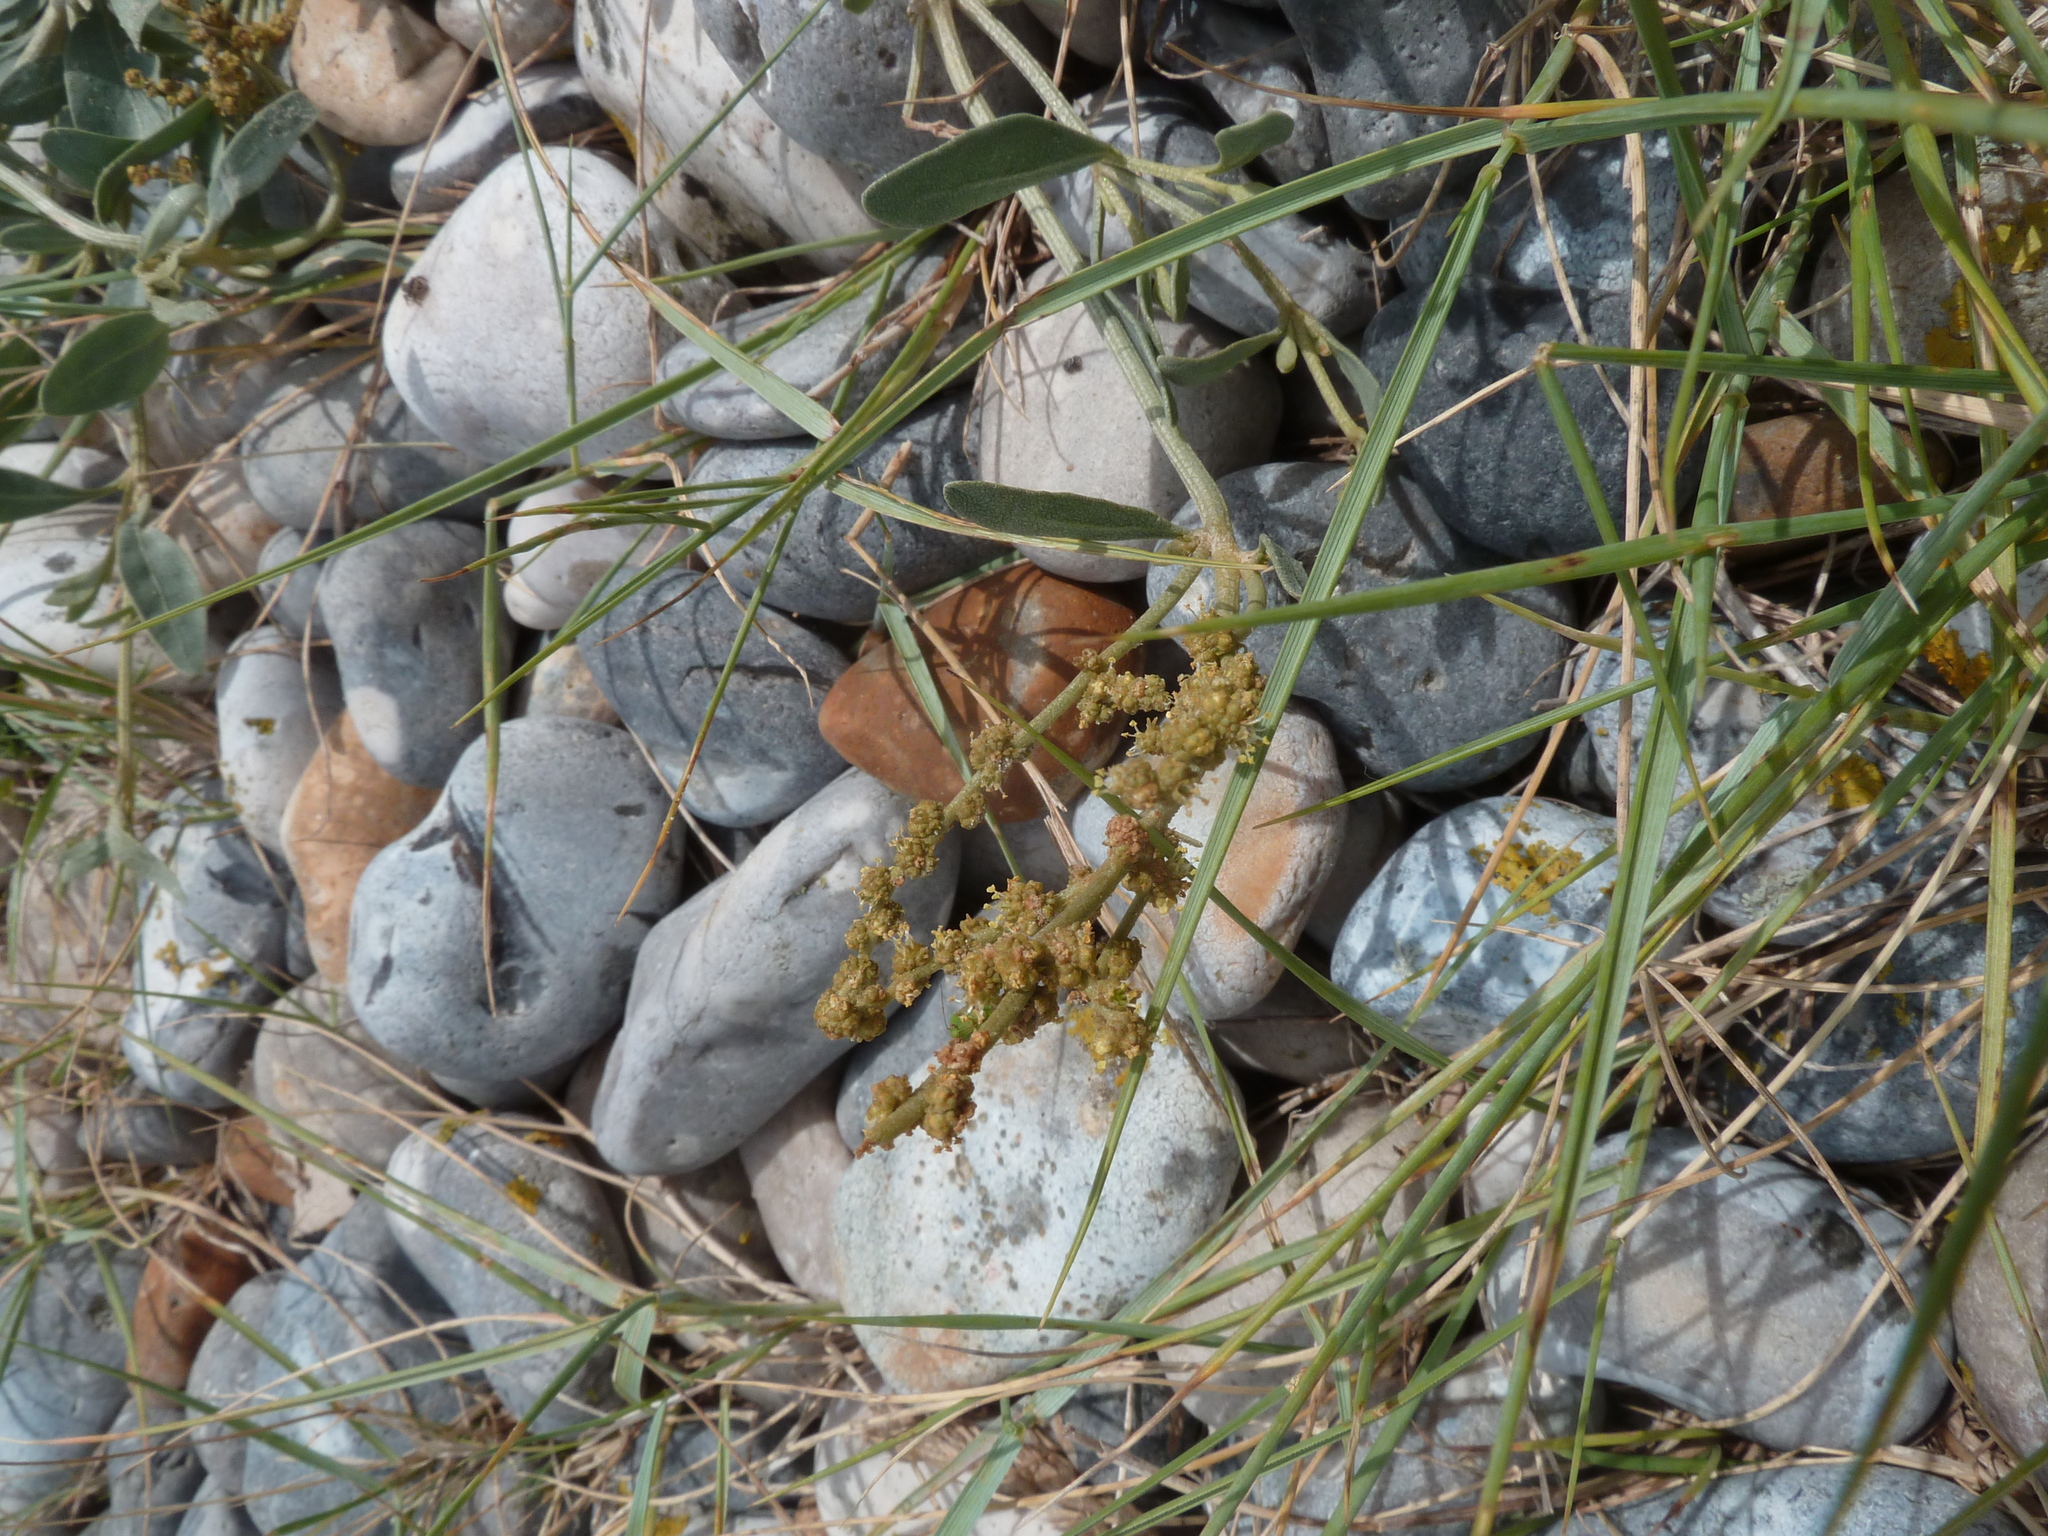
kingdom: Plantae
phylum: Tracheophyta
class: Magnoliopsida
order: Caryophyllales
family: Amaranthaceae
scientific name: Amaranthaceae
